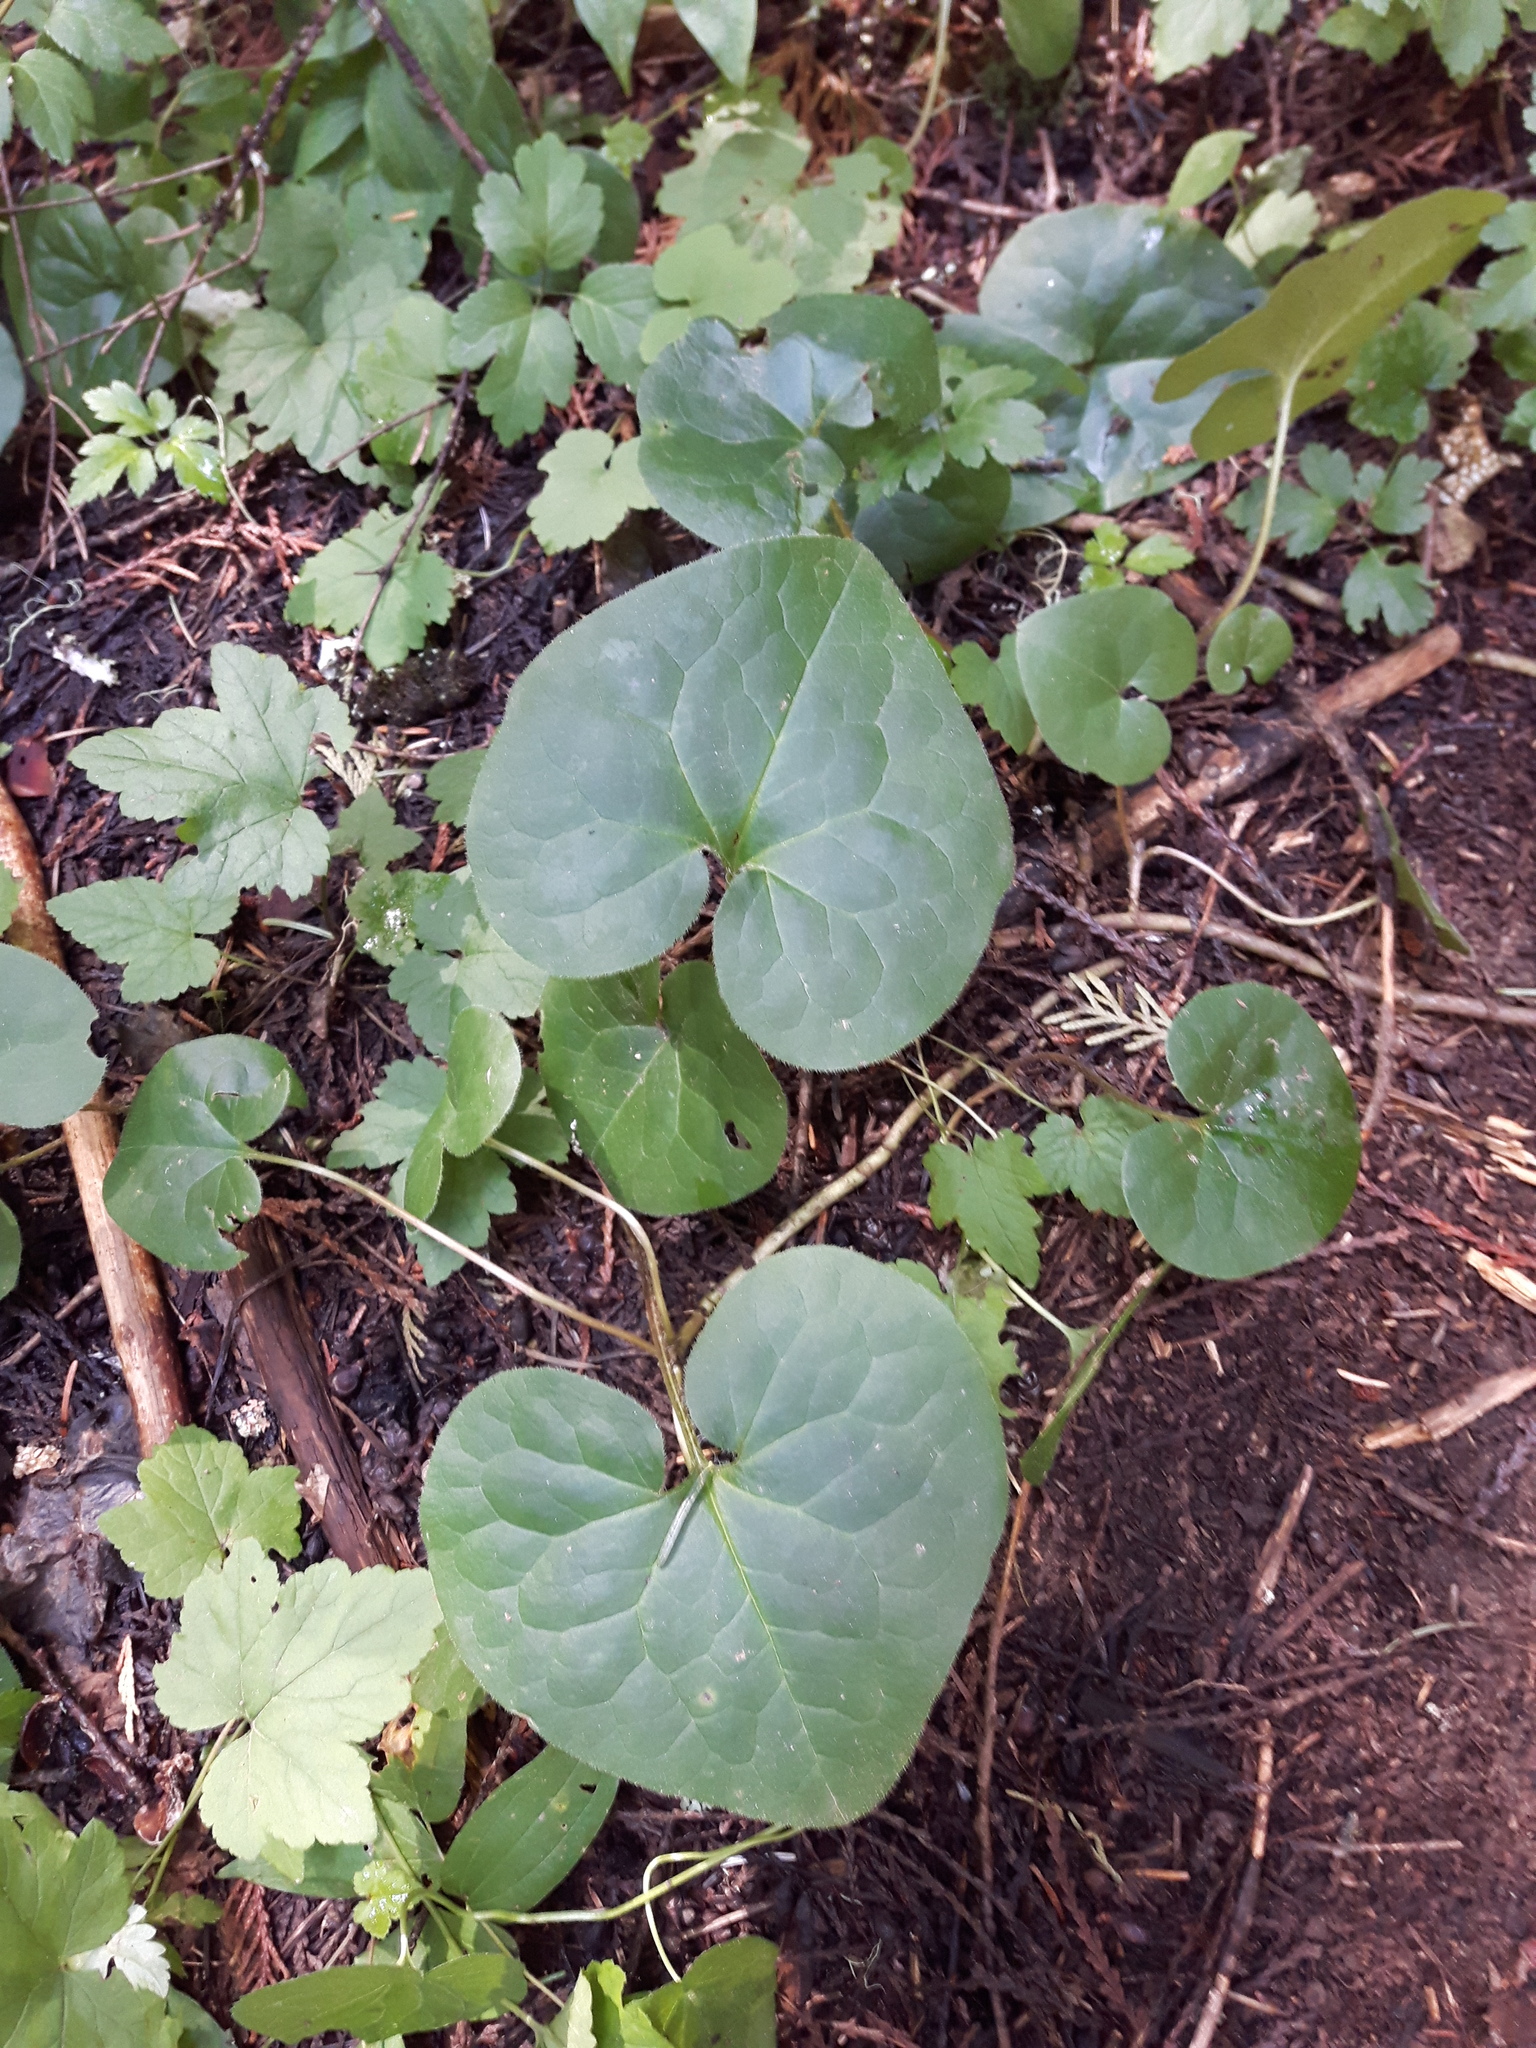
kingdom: Plantae
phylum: Tracheophyta
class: Magnoliopsida
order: Piperales
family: Aristolochiaceae
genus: Asarum
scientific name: Asarum caudatum
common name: Wild ginger
